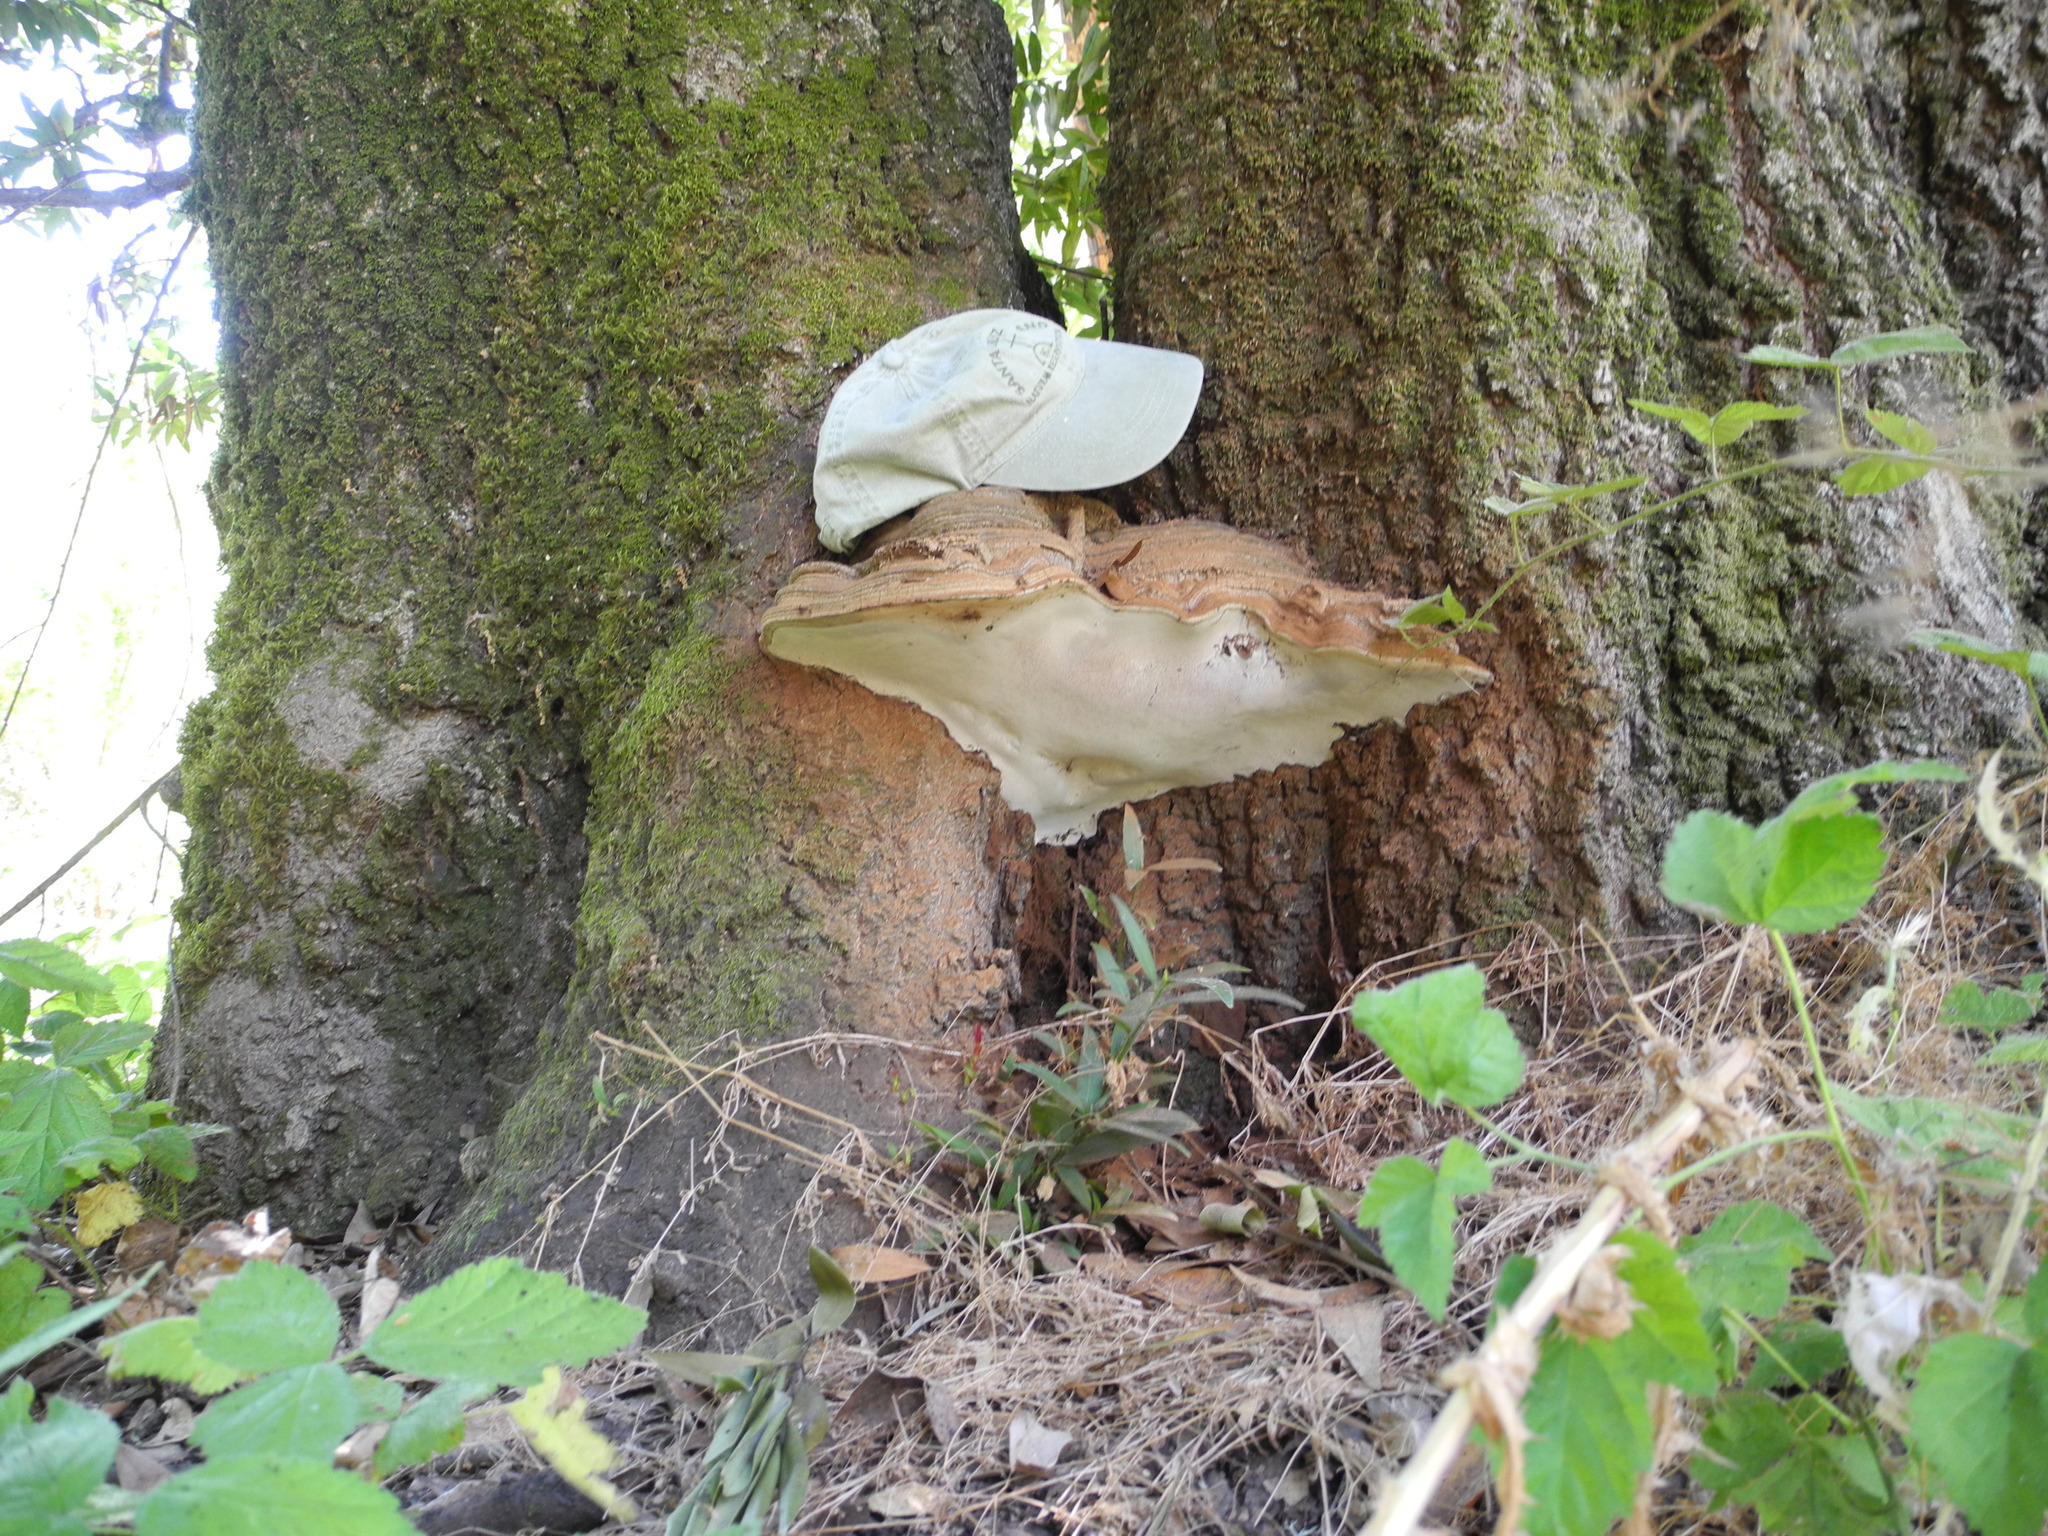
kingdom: Fungi
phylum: Basidiomycota
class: Agaricomycetes
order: Polyporales
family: Polyporaceae
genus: Ganoderma
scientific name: Ganoderma applanatum
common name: Artist's bracket
